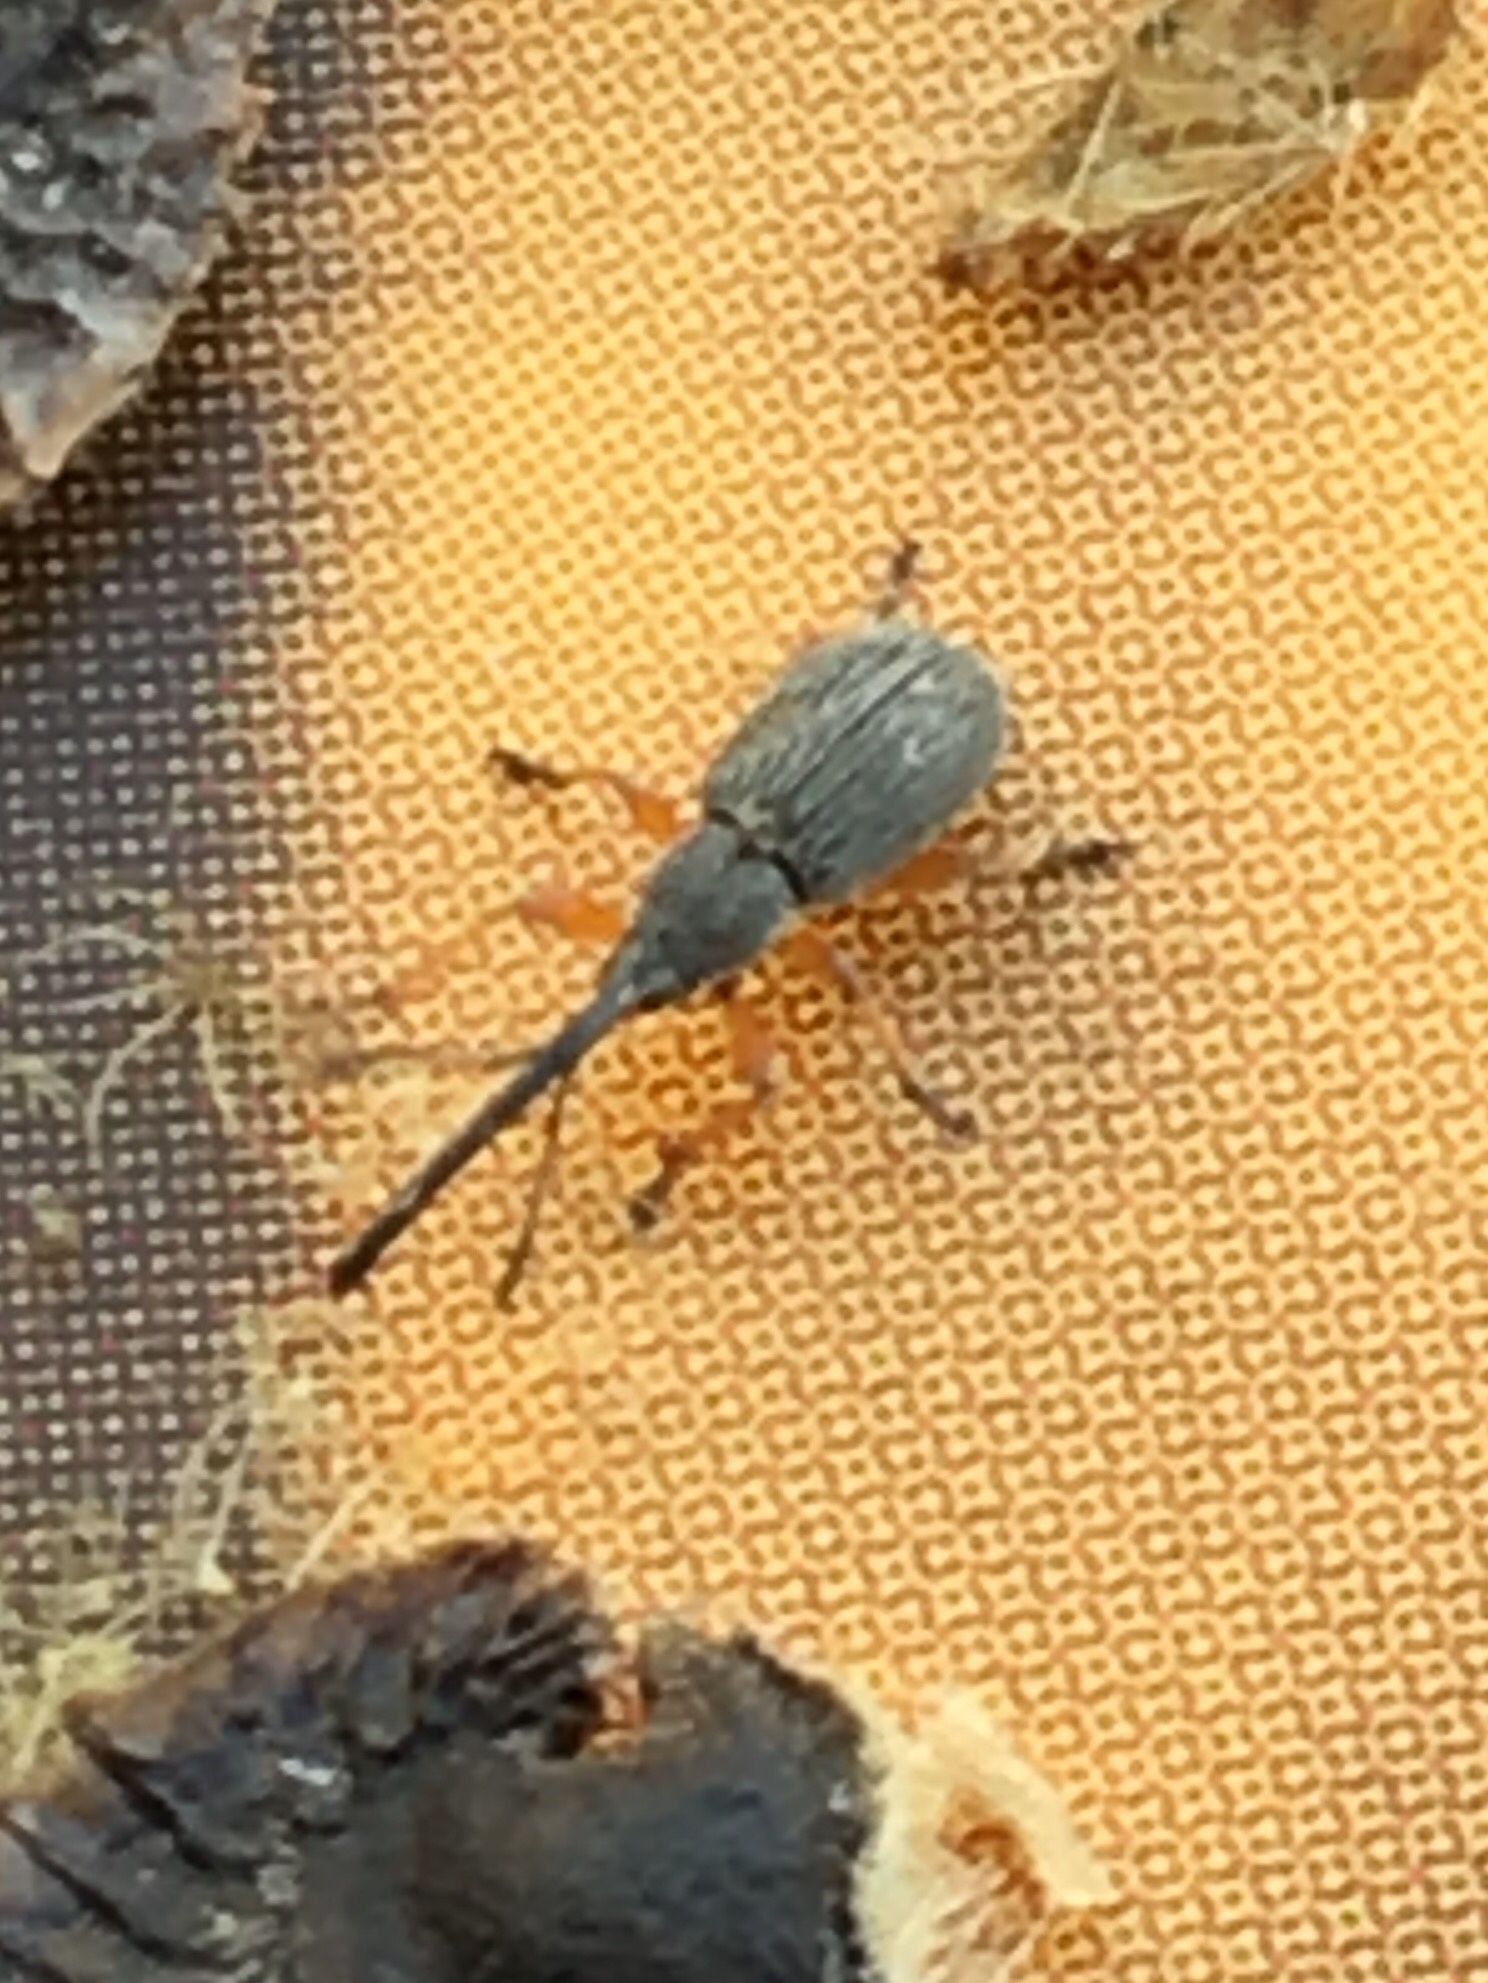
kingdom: Animalia
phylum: Arthropoda
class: Insecta
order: Coleoptera
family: Brentidae
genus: Rhopalapion
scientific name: Rhopalapion longirostre
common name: Hollyhock weevil
